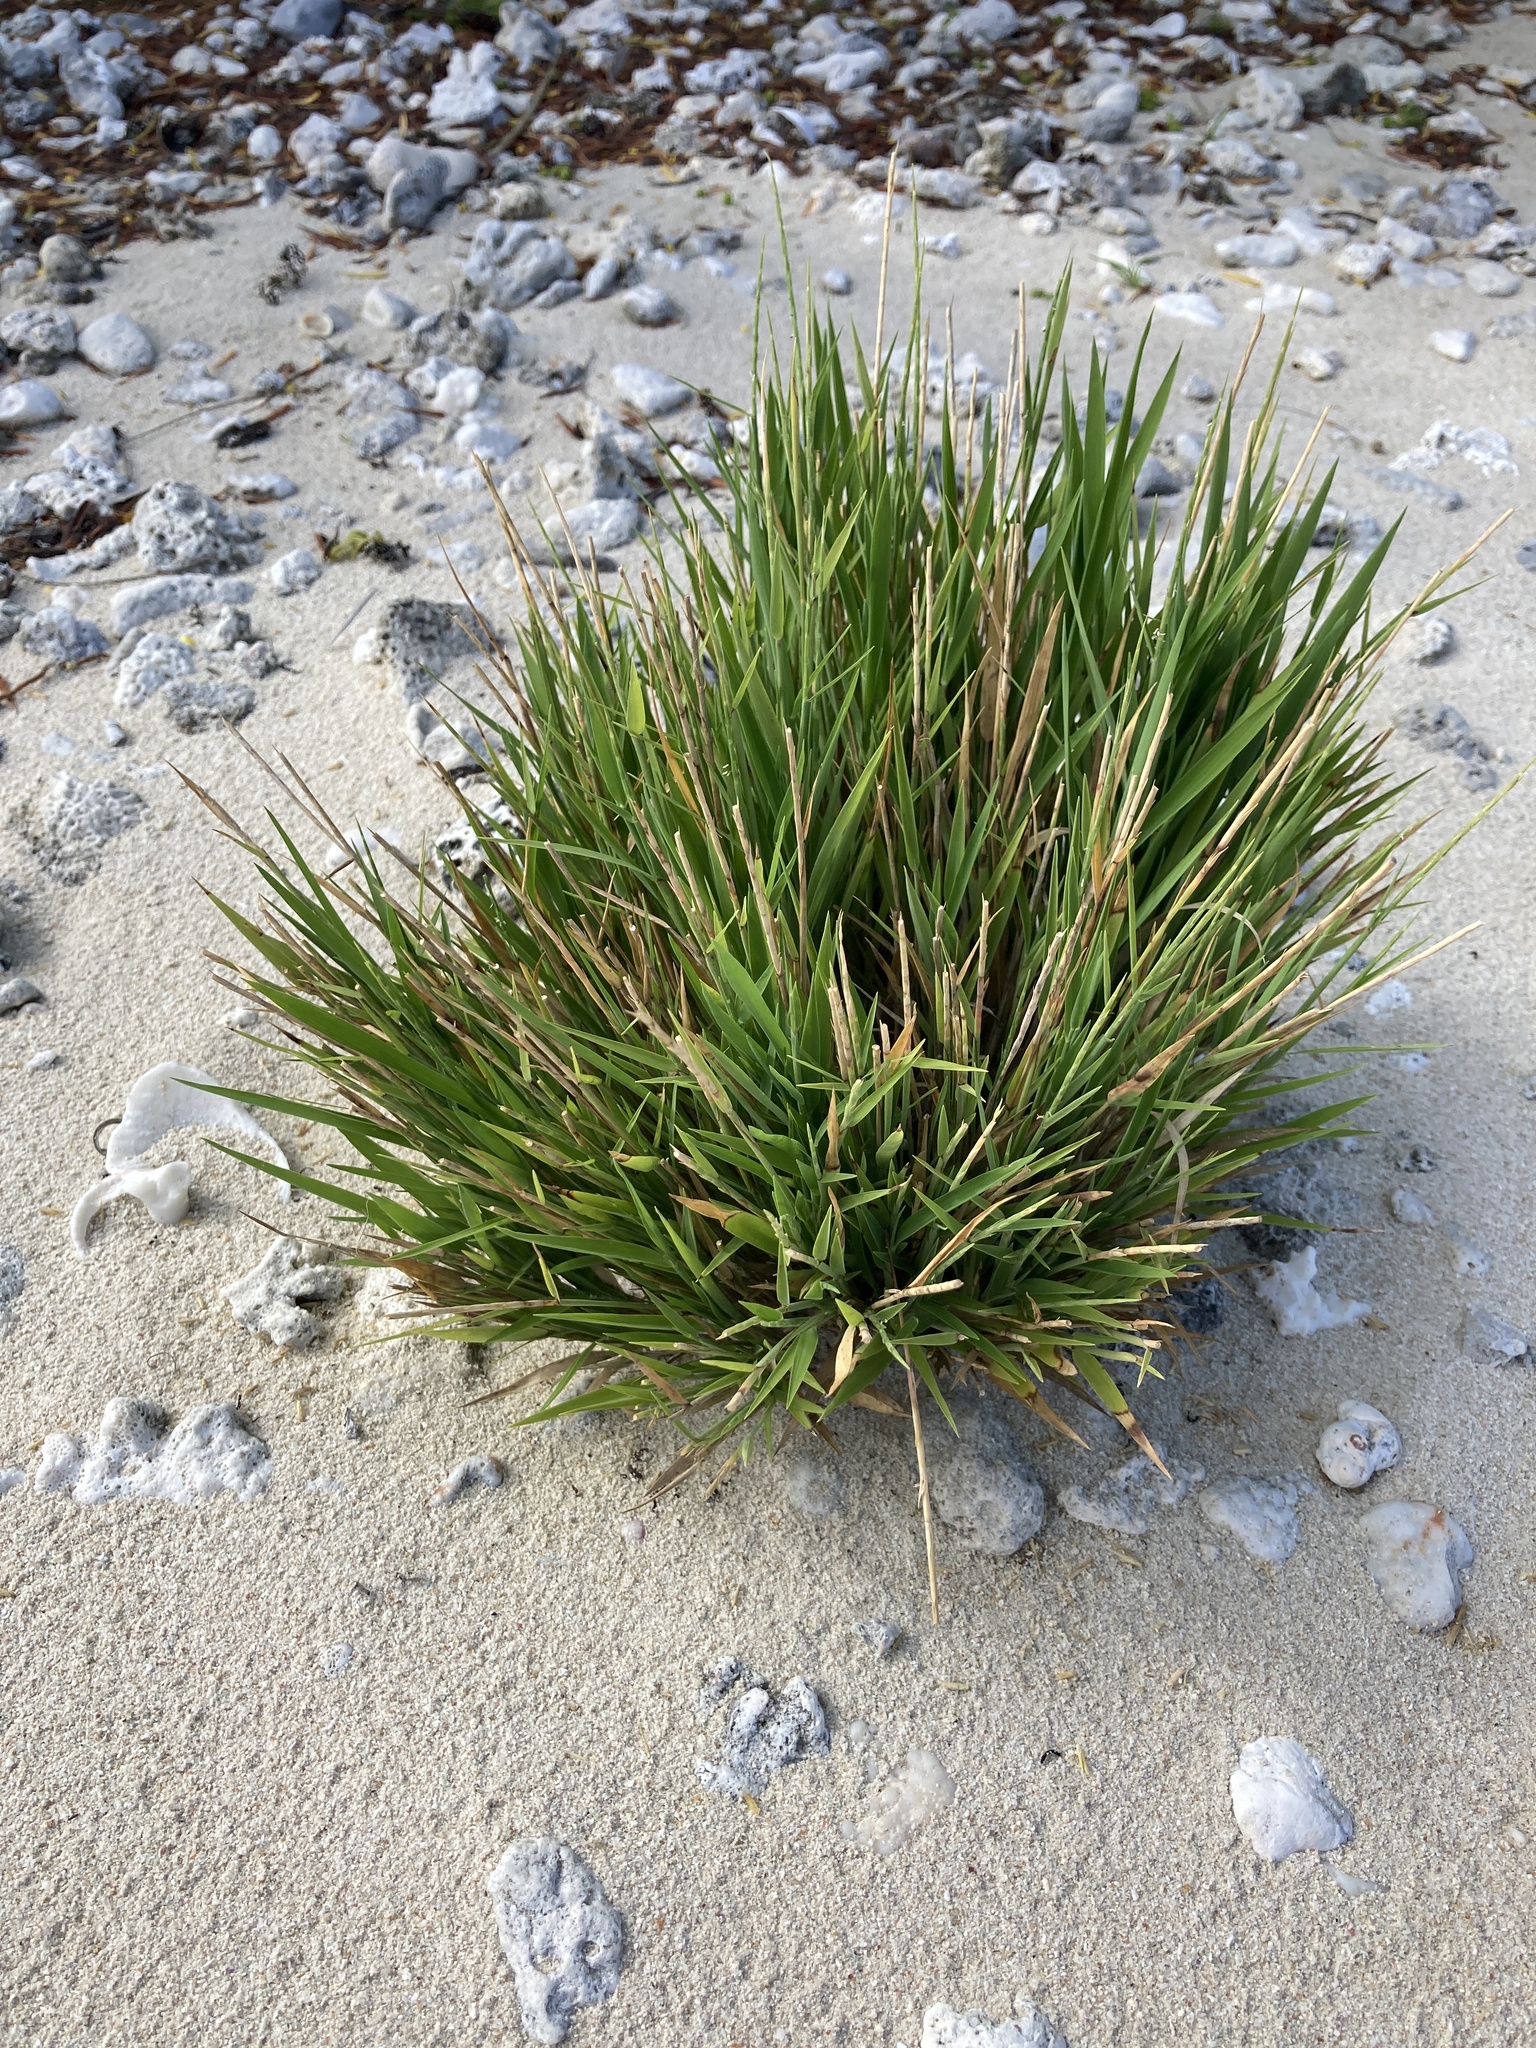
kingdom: Plantae
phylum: Tracheophyta
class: Liliopsida
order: Poales
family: Poaceae
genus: Lepturus
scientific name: Lepturus repens
